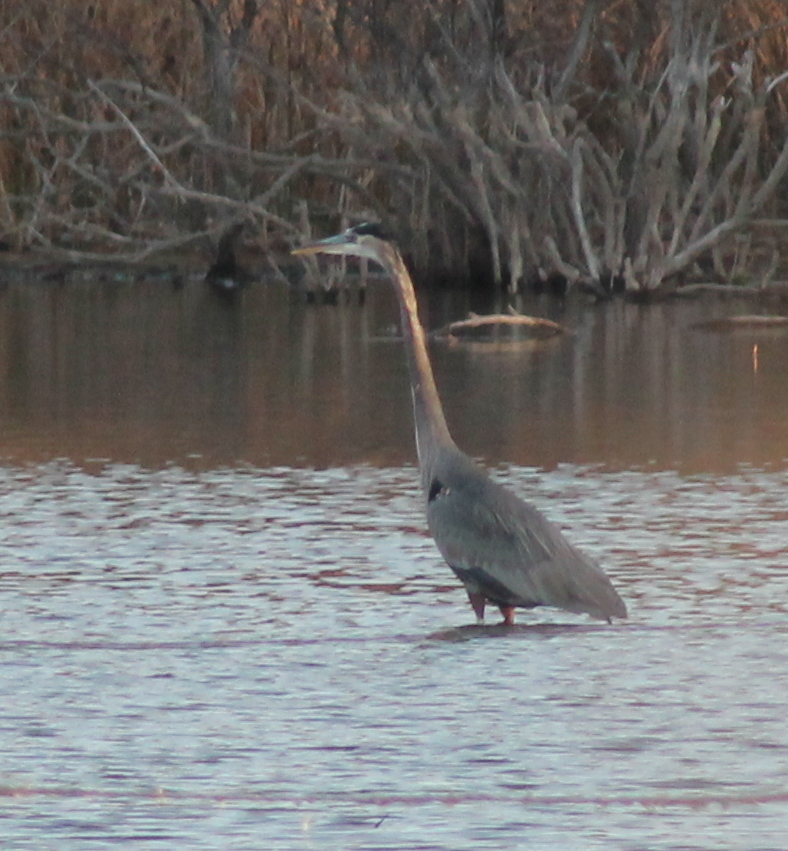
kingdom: Animalia
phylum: Chordata
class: Aves
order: Pelecaniformes
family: Ardeidae
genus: Ardea
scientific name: Ardea herodias
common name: Great blue heron
